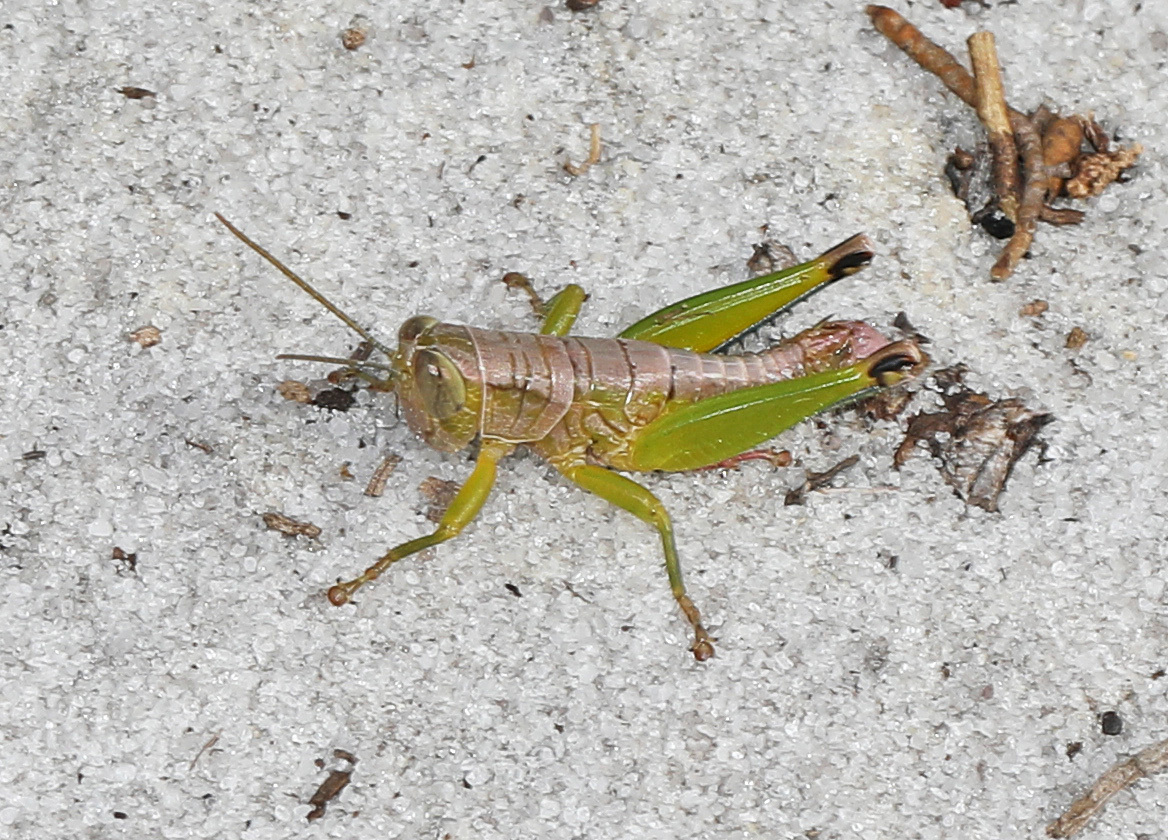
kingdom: Animalia
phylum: Arthropoda
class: Insecta
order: Orthoptera
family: Acrididae
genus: Floritettix
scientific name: Floritettix nigropicta
